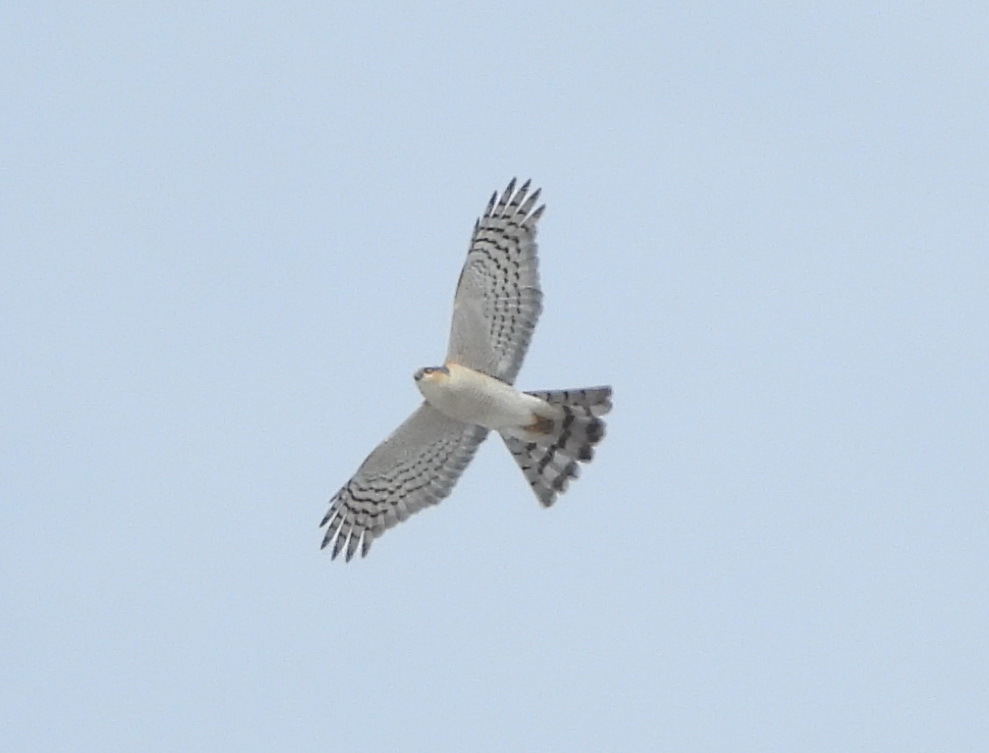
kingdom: Animalia
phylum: Chordata
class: Aves
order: Accipitriformes
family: Accipitridae
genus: Accipiter
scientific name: Accipiter nisus
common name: Eurasian sparrowhawk
